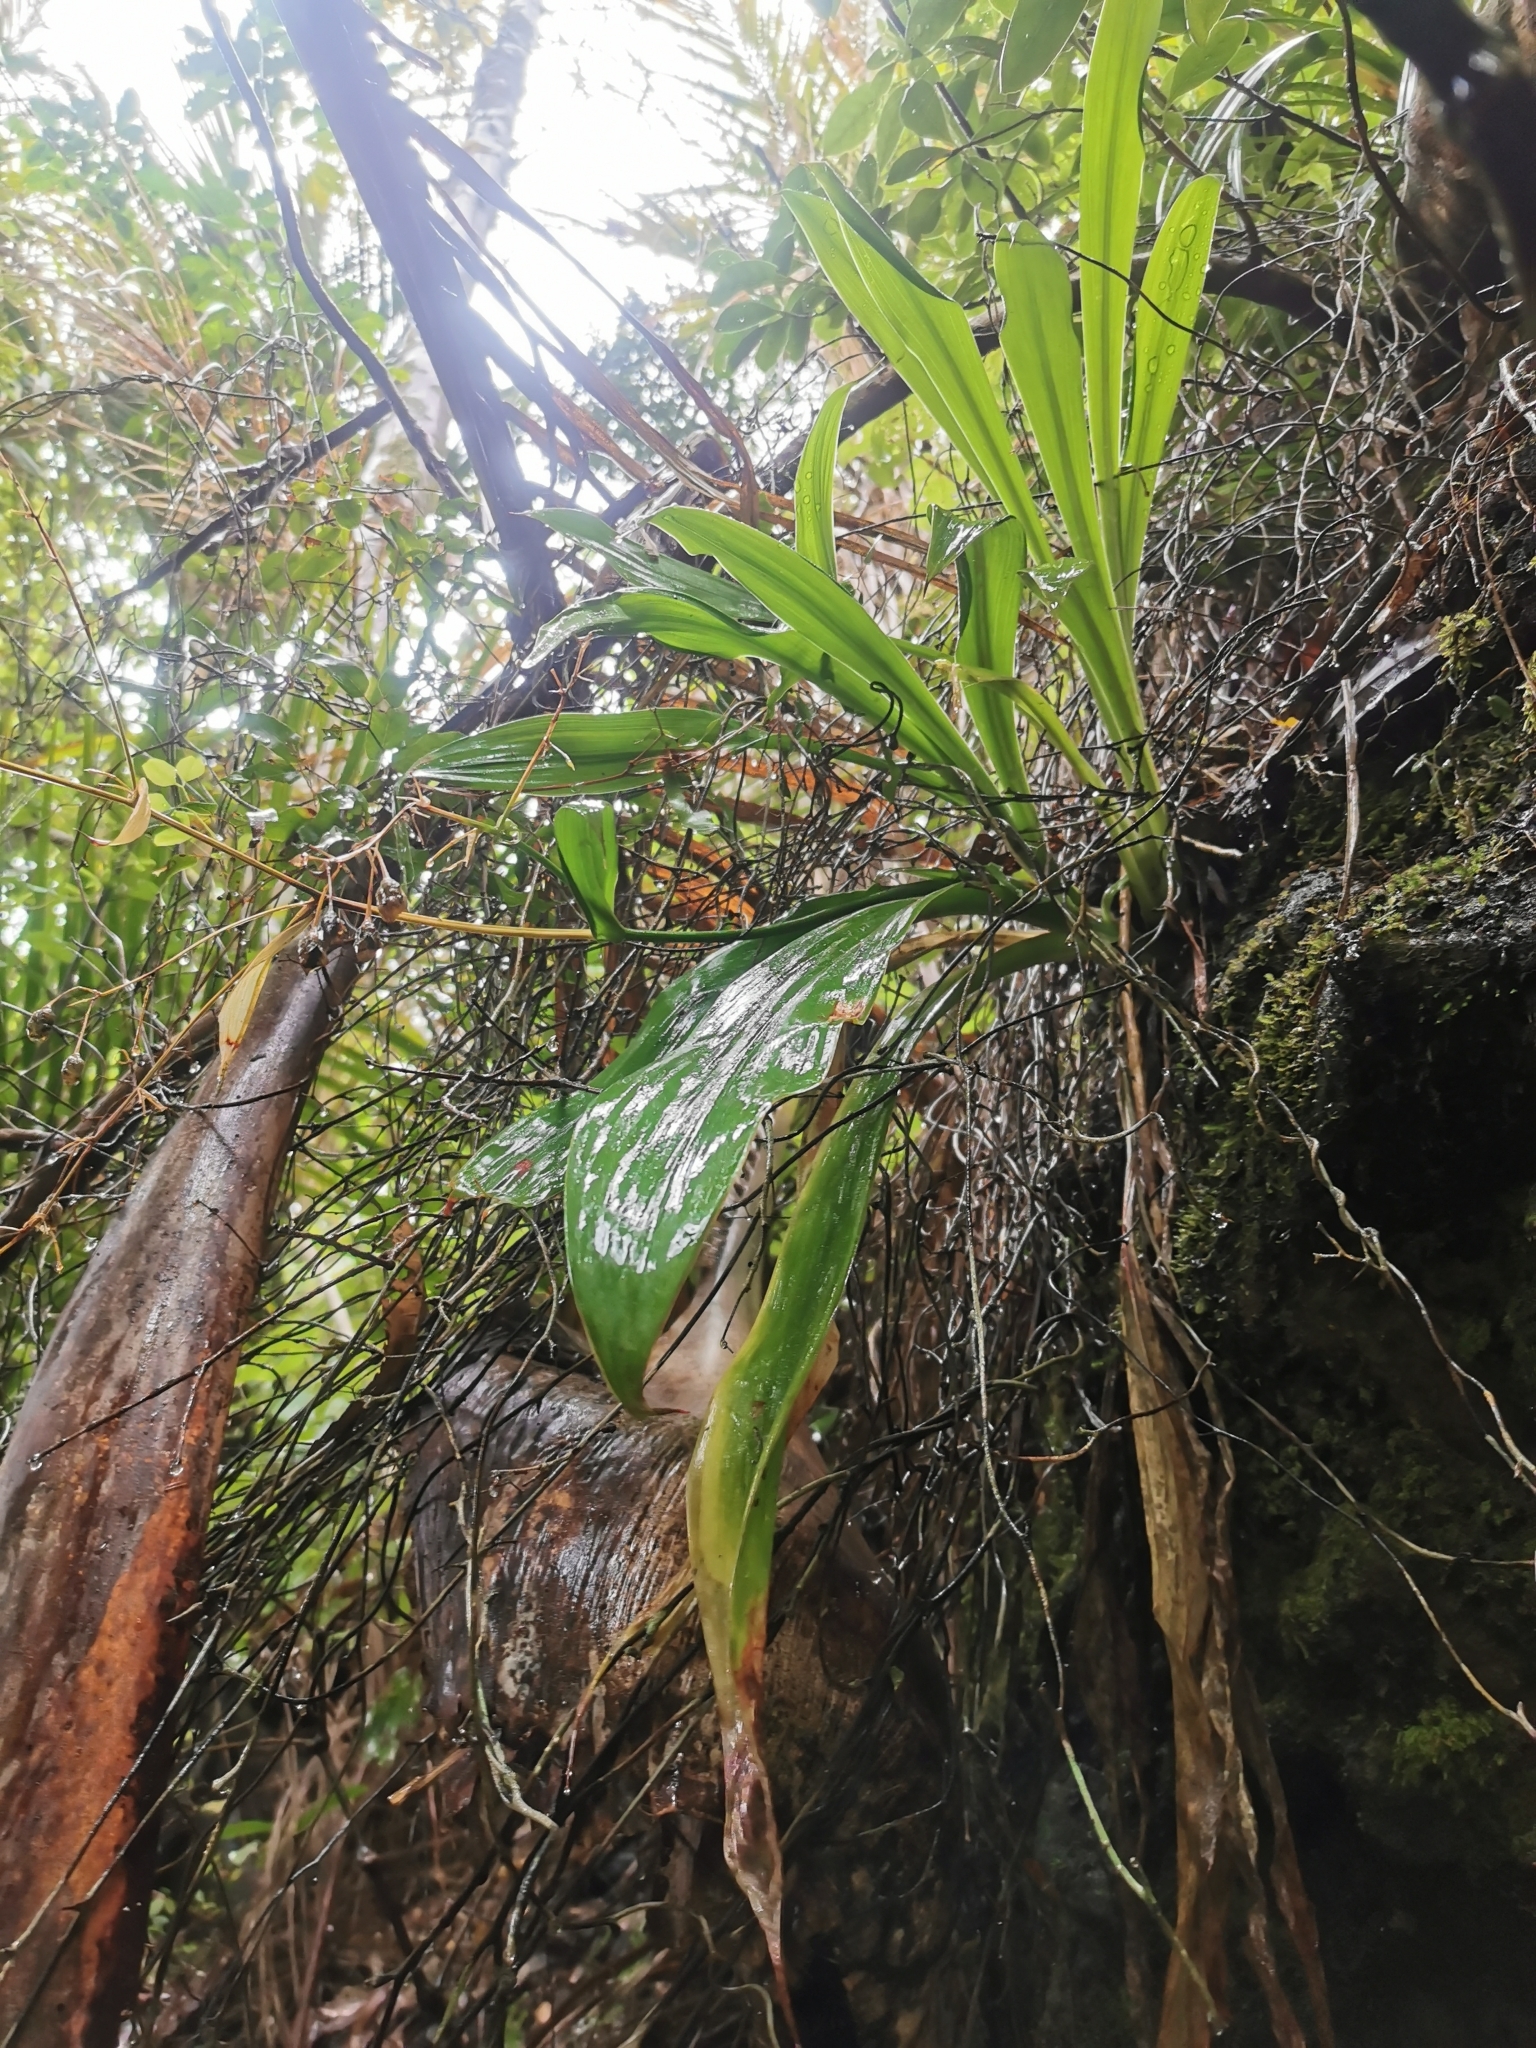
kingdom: Plantae
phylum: Tracheophyta
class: Liliopsida
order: Asparagales
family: Asparagaceae
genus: Arthropodium
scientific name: Arthropodium cirratum
